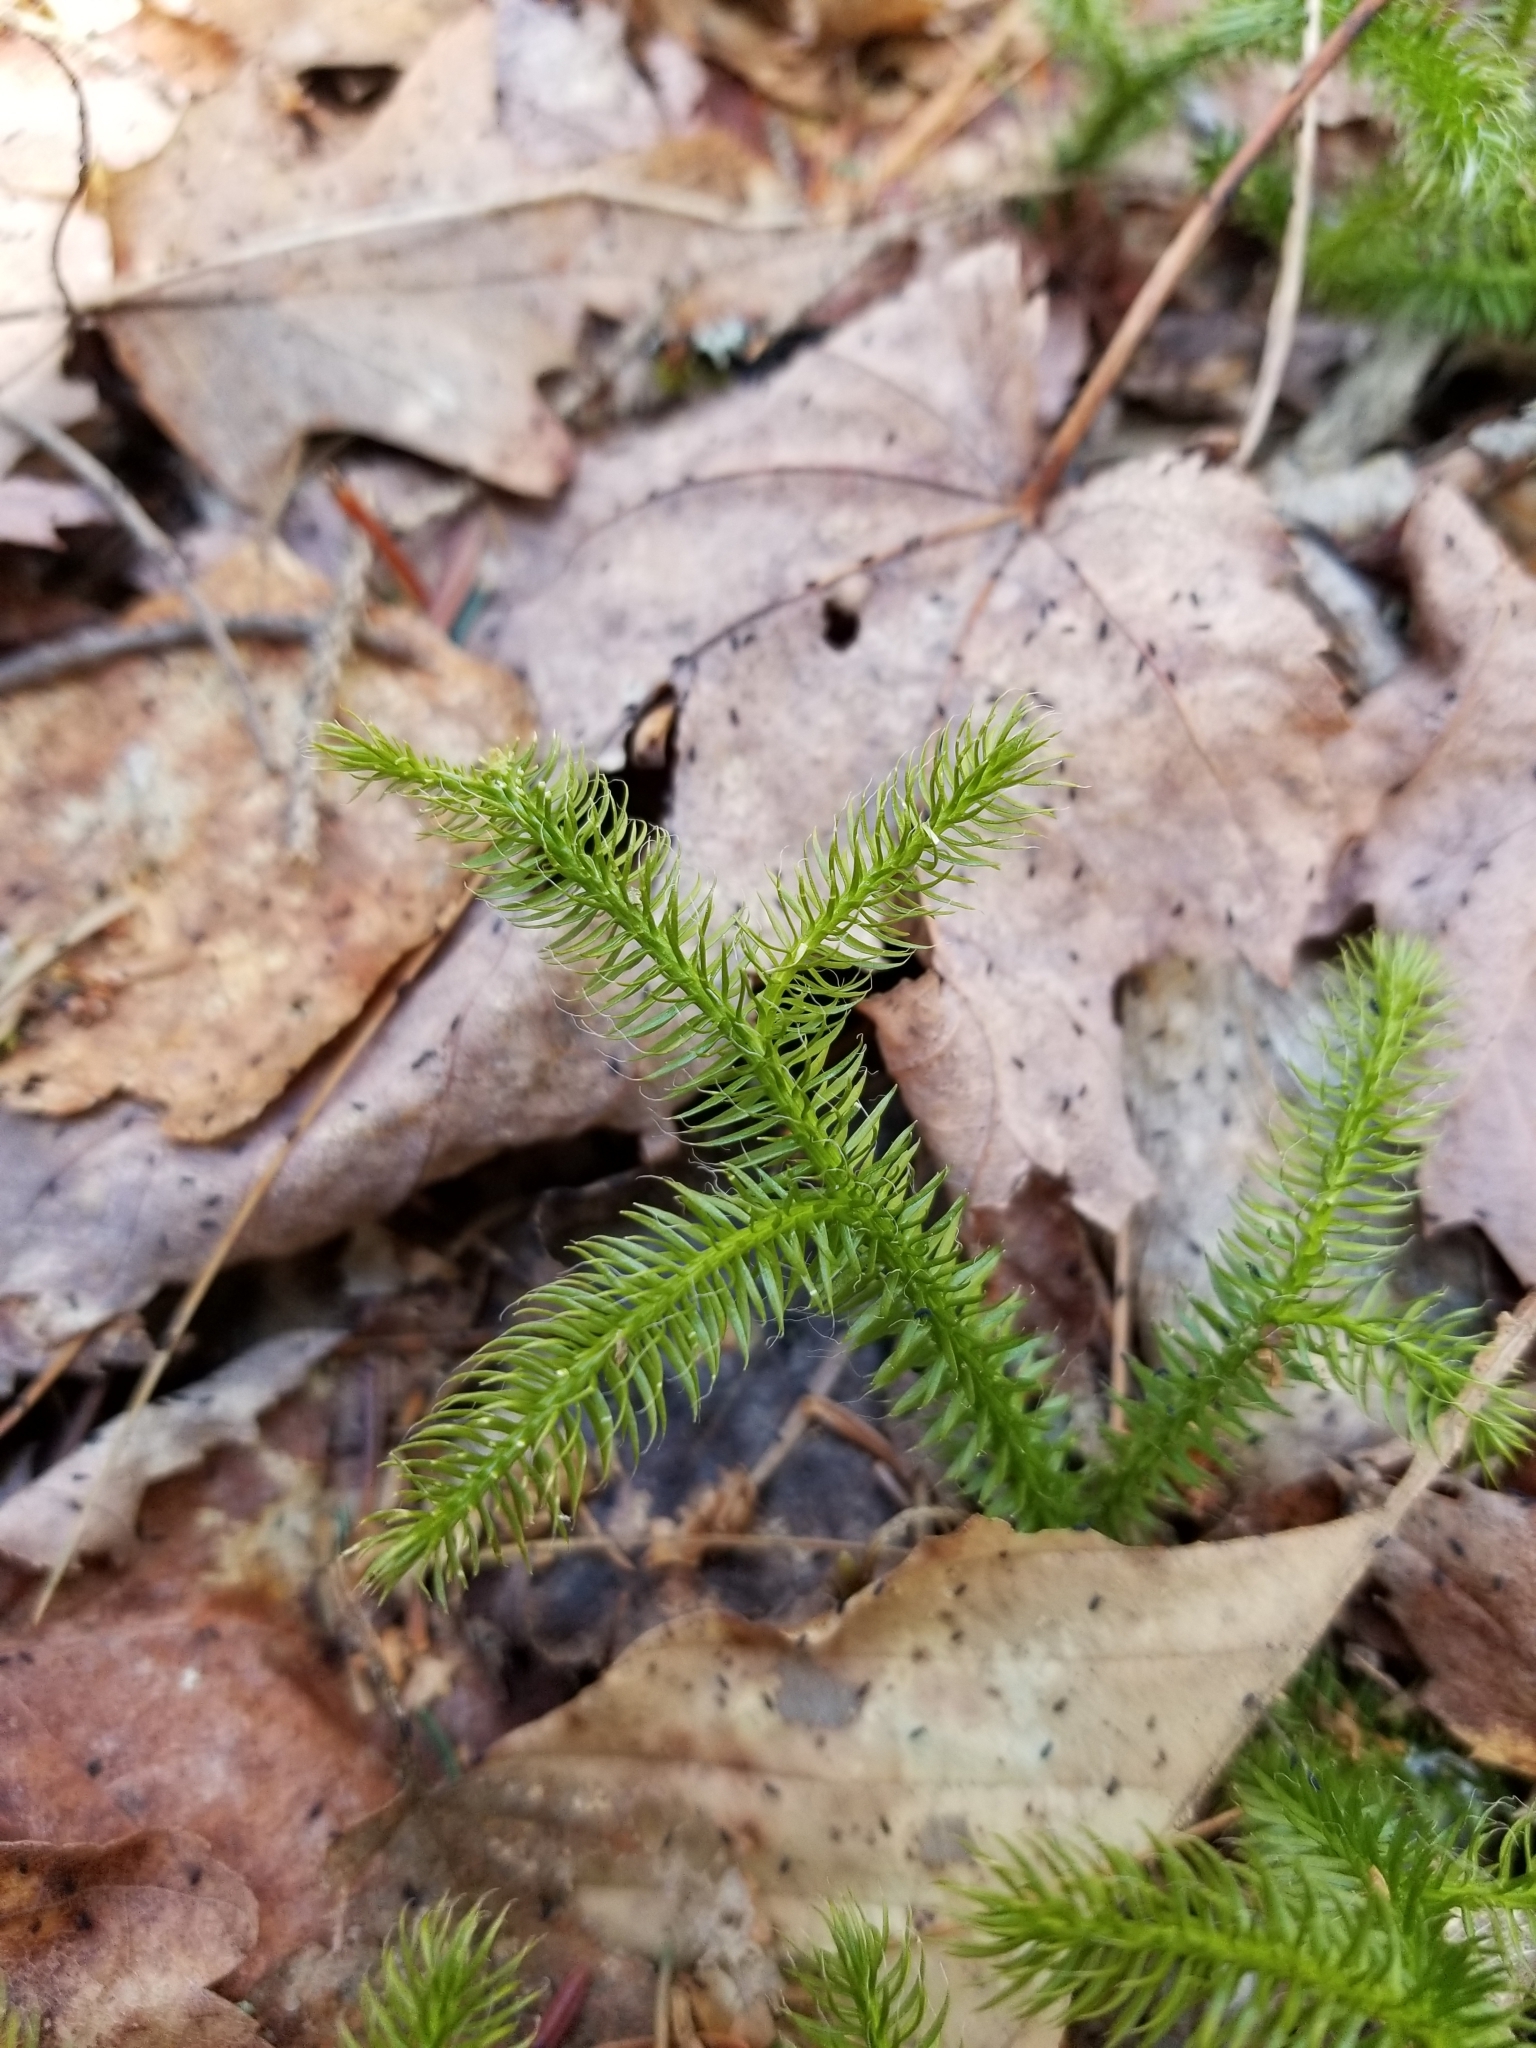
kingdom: Plantae
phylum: Tracheophyta
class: Lycopodiopsida
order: Lycopodiales
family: Lycopodiaceae
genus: Lycopodium
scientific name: Lycopodium clavatum
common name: Stag's-horn clubmoss
